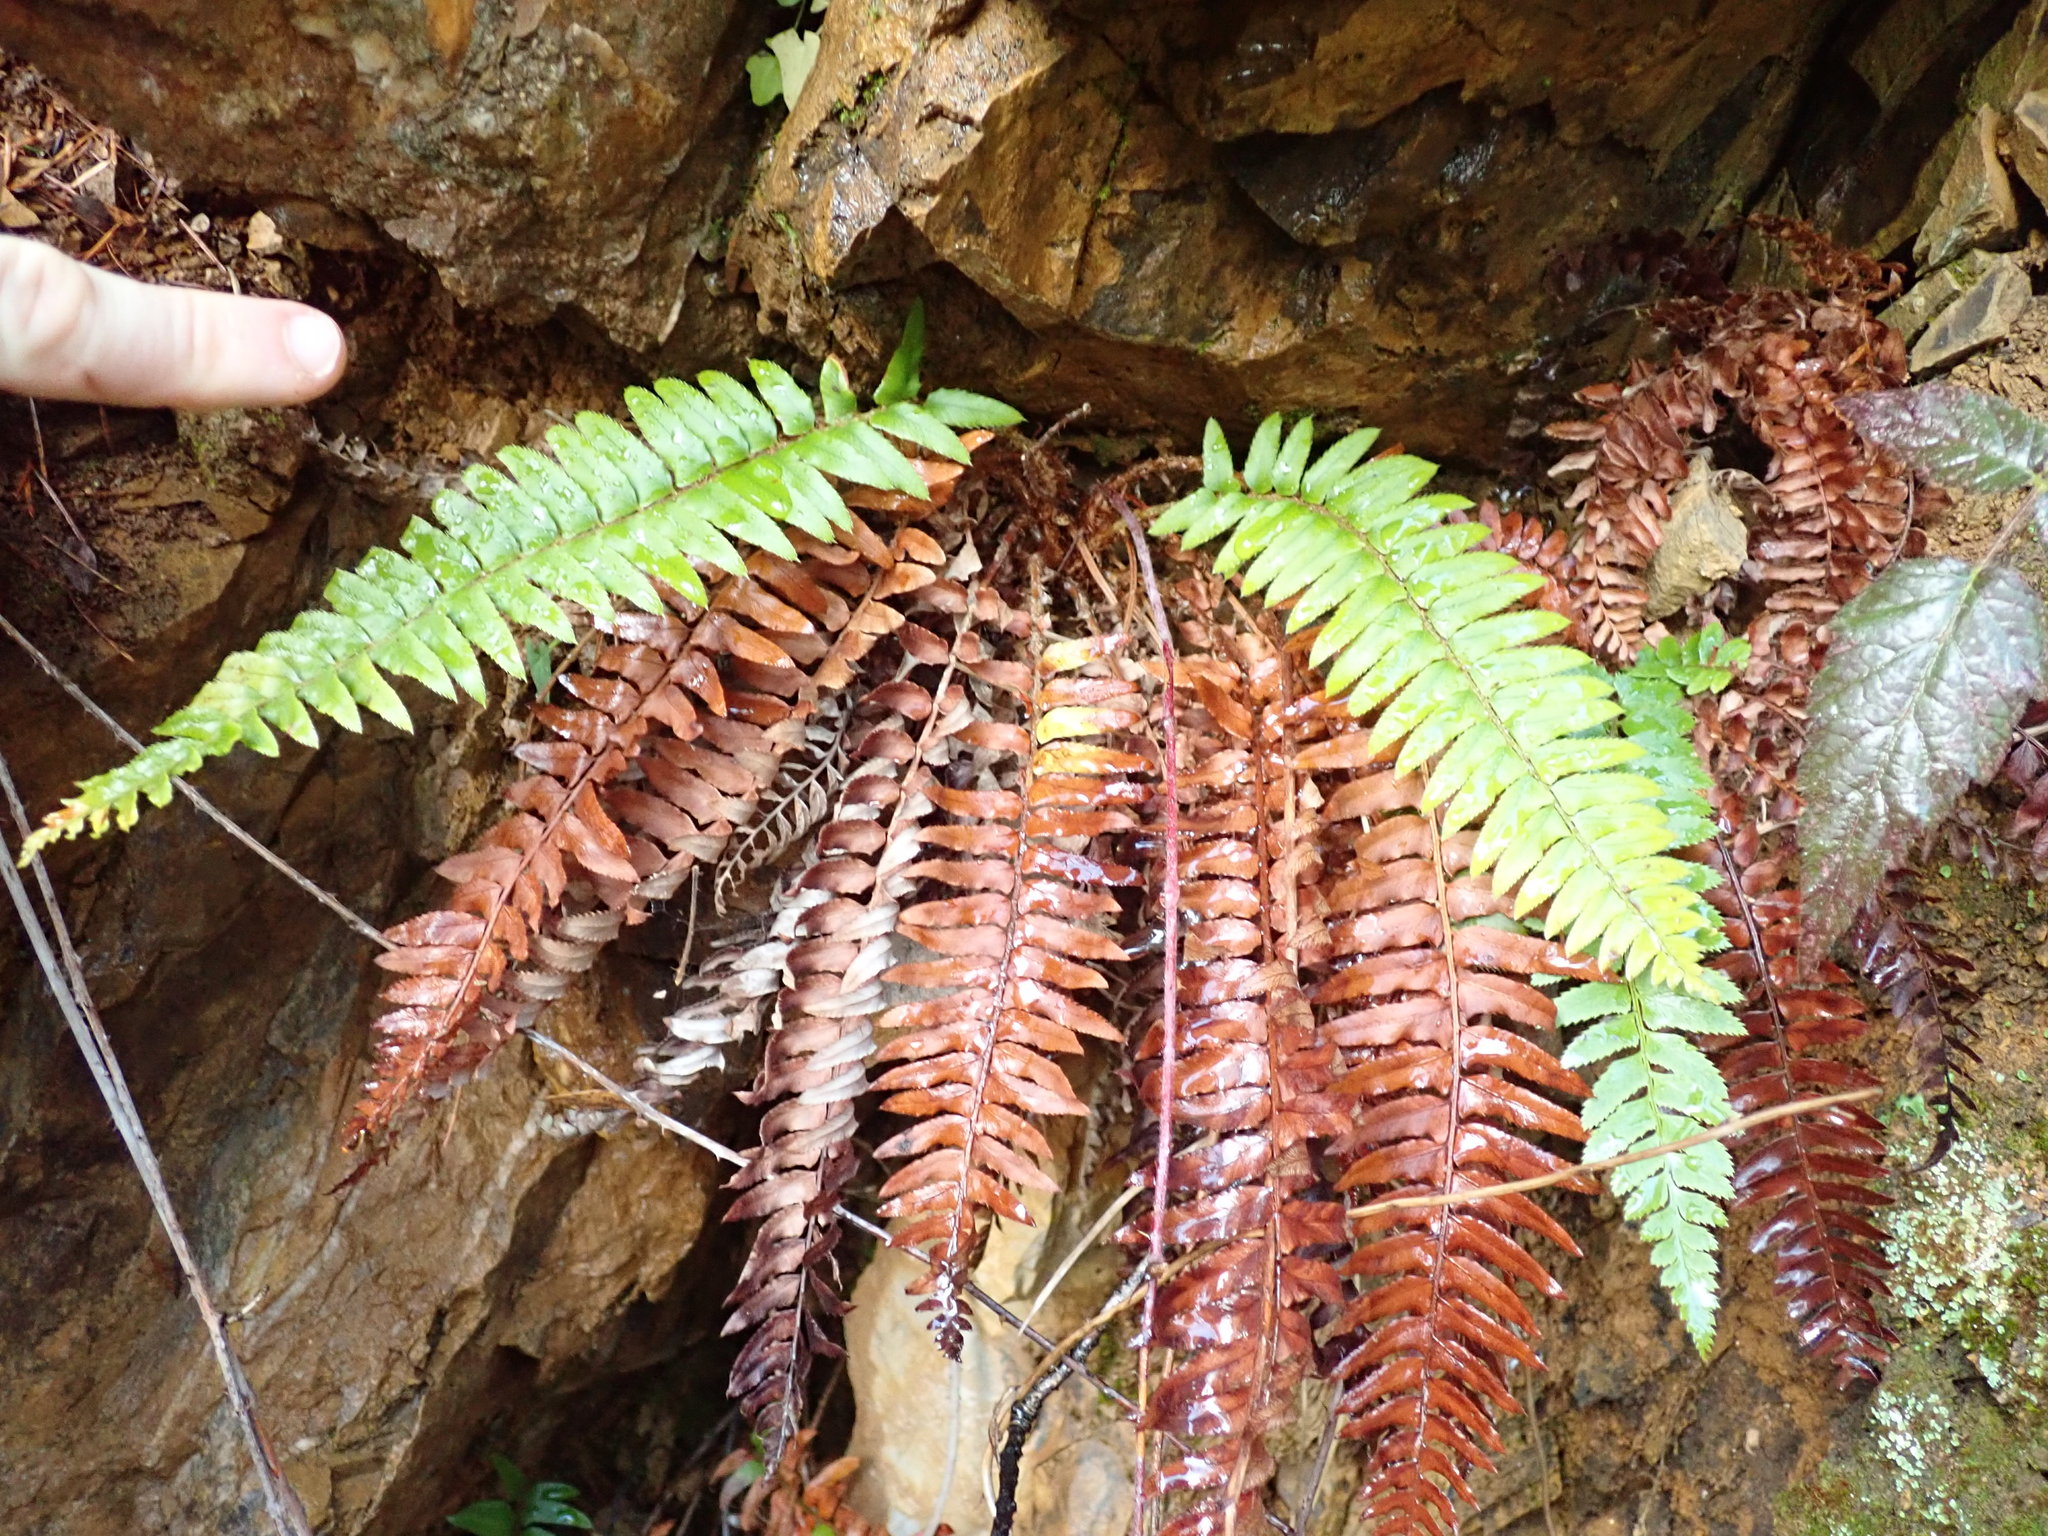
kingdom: Plantae
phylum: Tracheophyta
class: Polypodiopsida
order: Polypodiales
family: Dryopteridaceae
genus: Polystichum
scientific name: Polystichum munitum
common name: Western sword-fern
